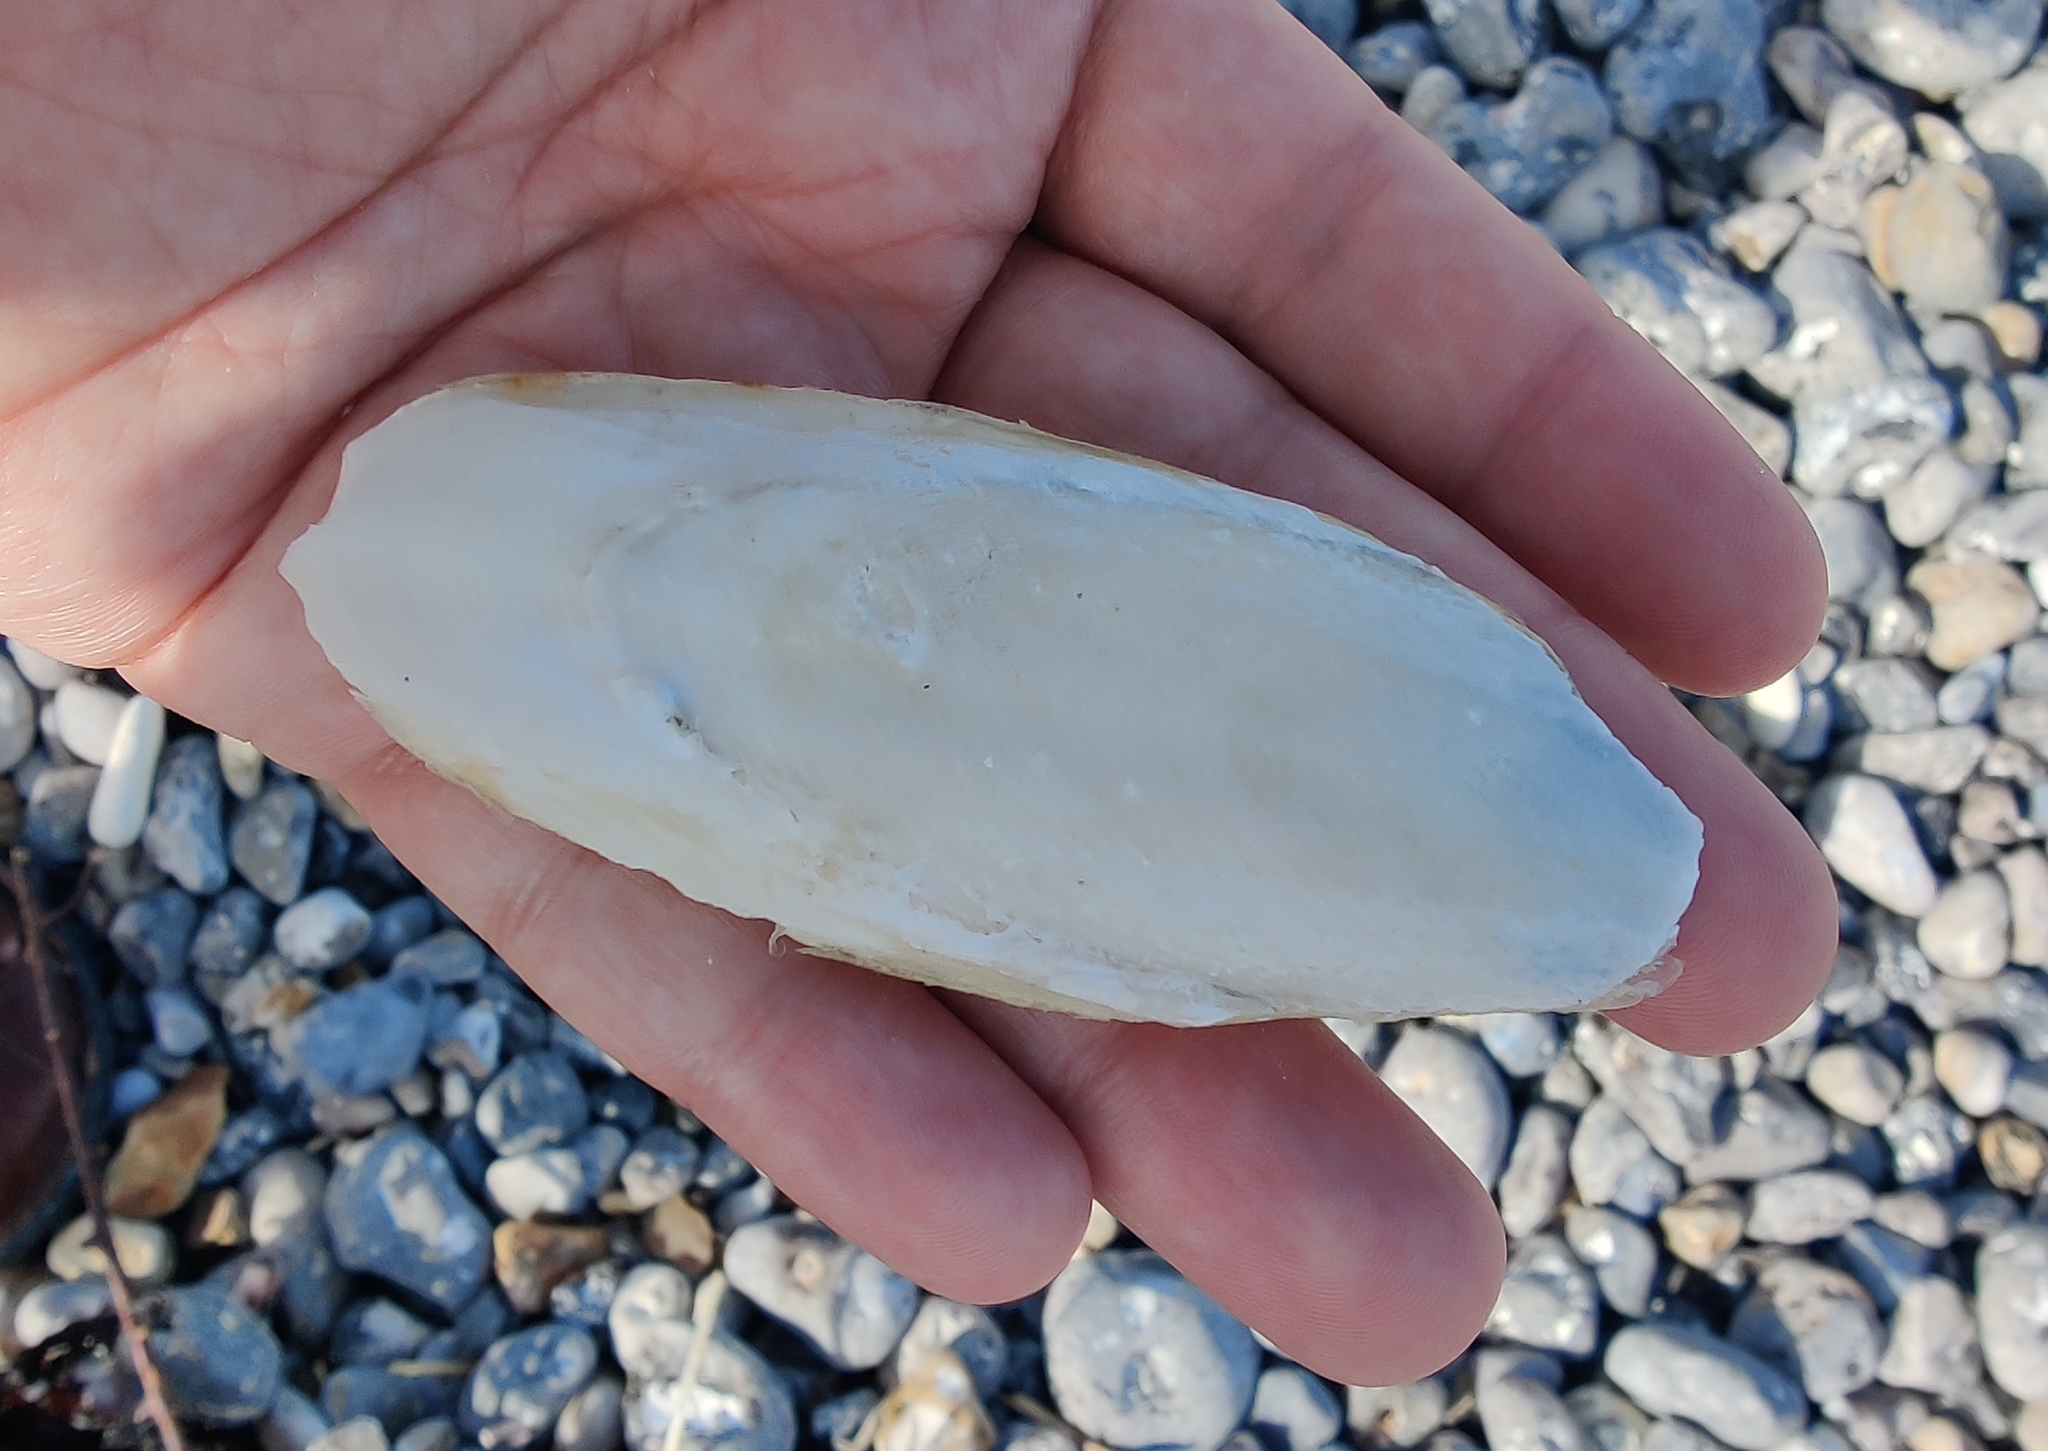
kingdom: Animalia
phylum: Mollusca
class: Cephalopoda
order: Sepiida
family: Sepiidae
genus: Sepia
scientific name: Sepia officinalis
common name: Common cuttlefish
